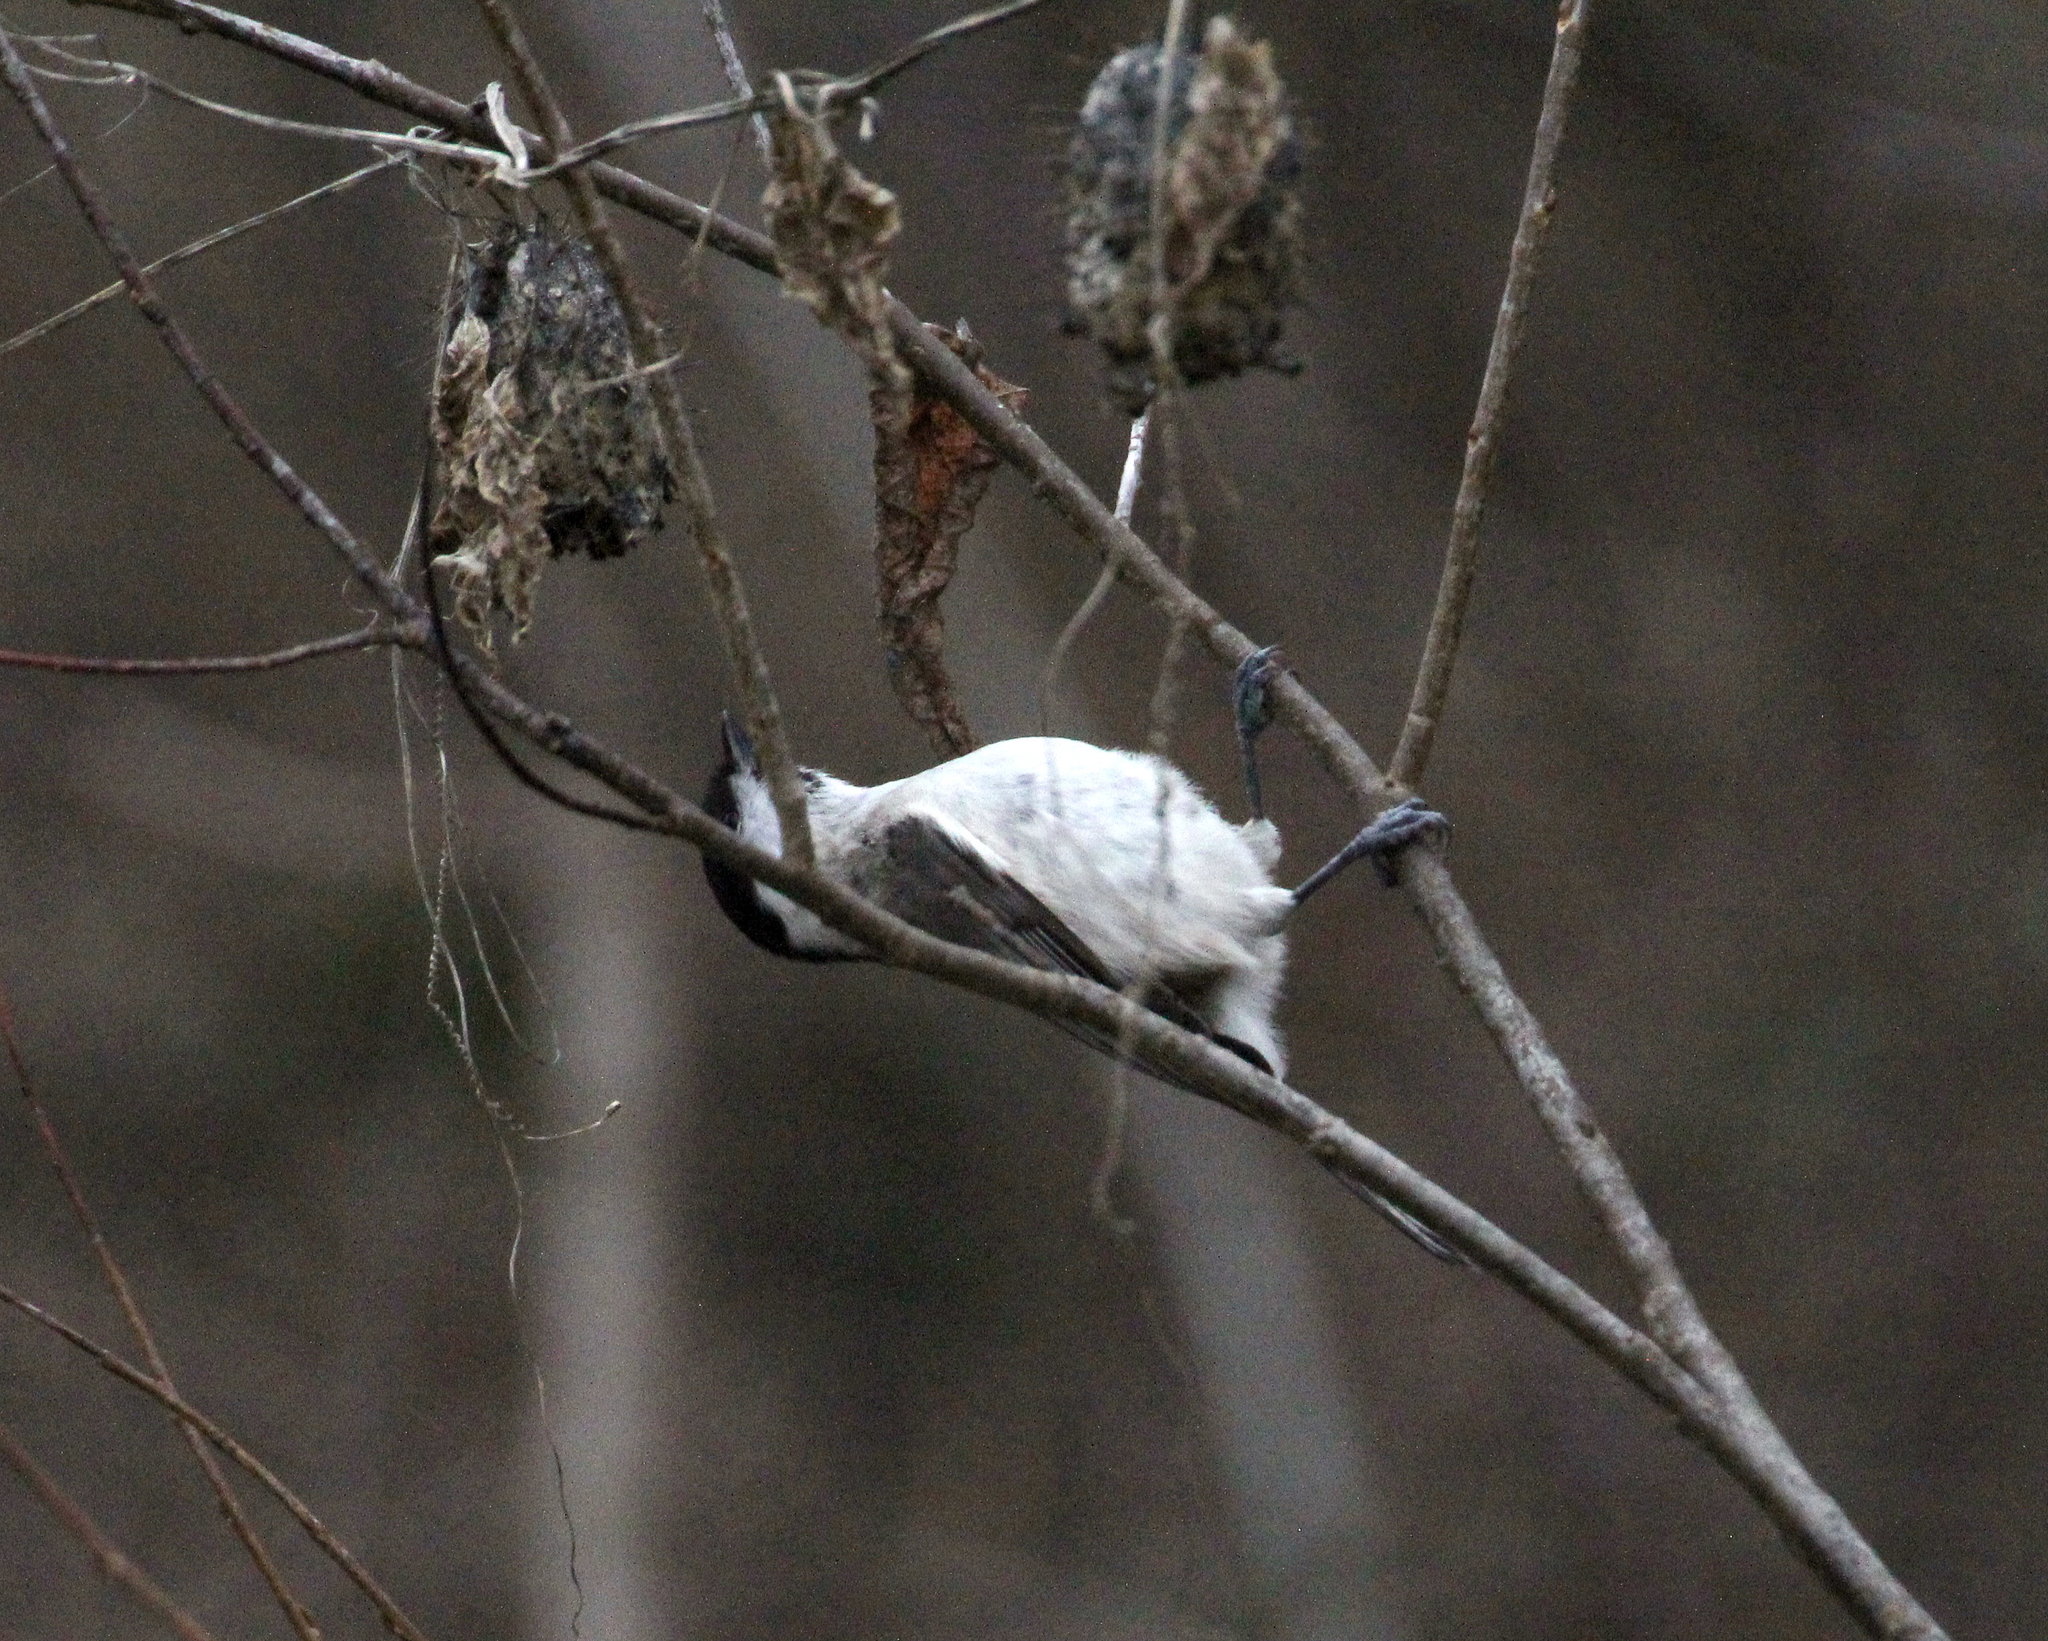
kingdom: Animalia
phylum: Chordata
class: Aves
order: Passeriformes
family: Paridae
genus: Poecile
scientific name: Poecile palustris
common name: Marsh tit
